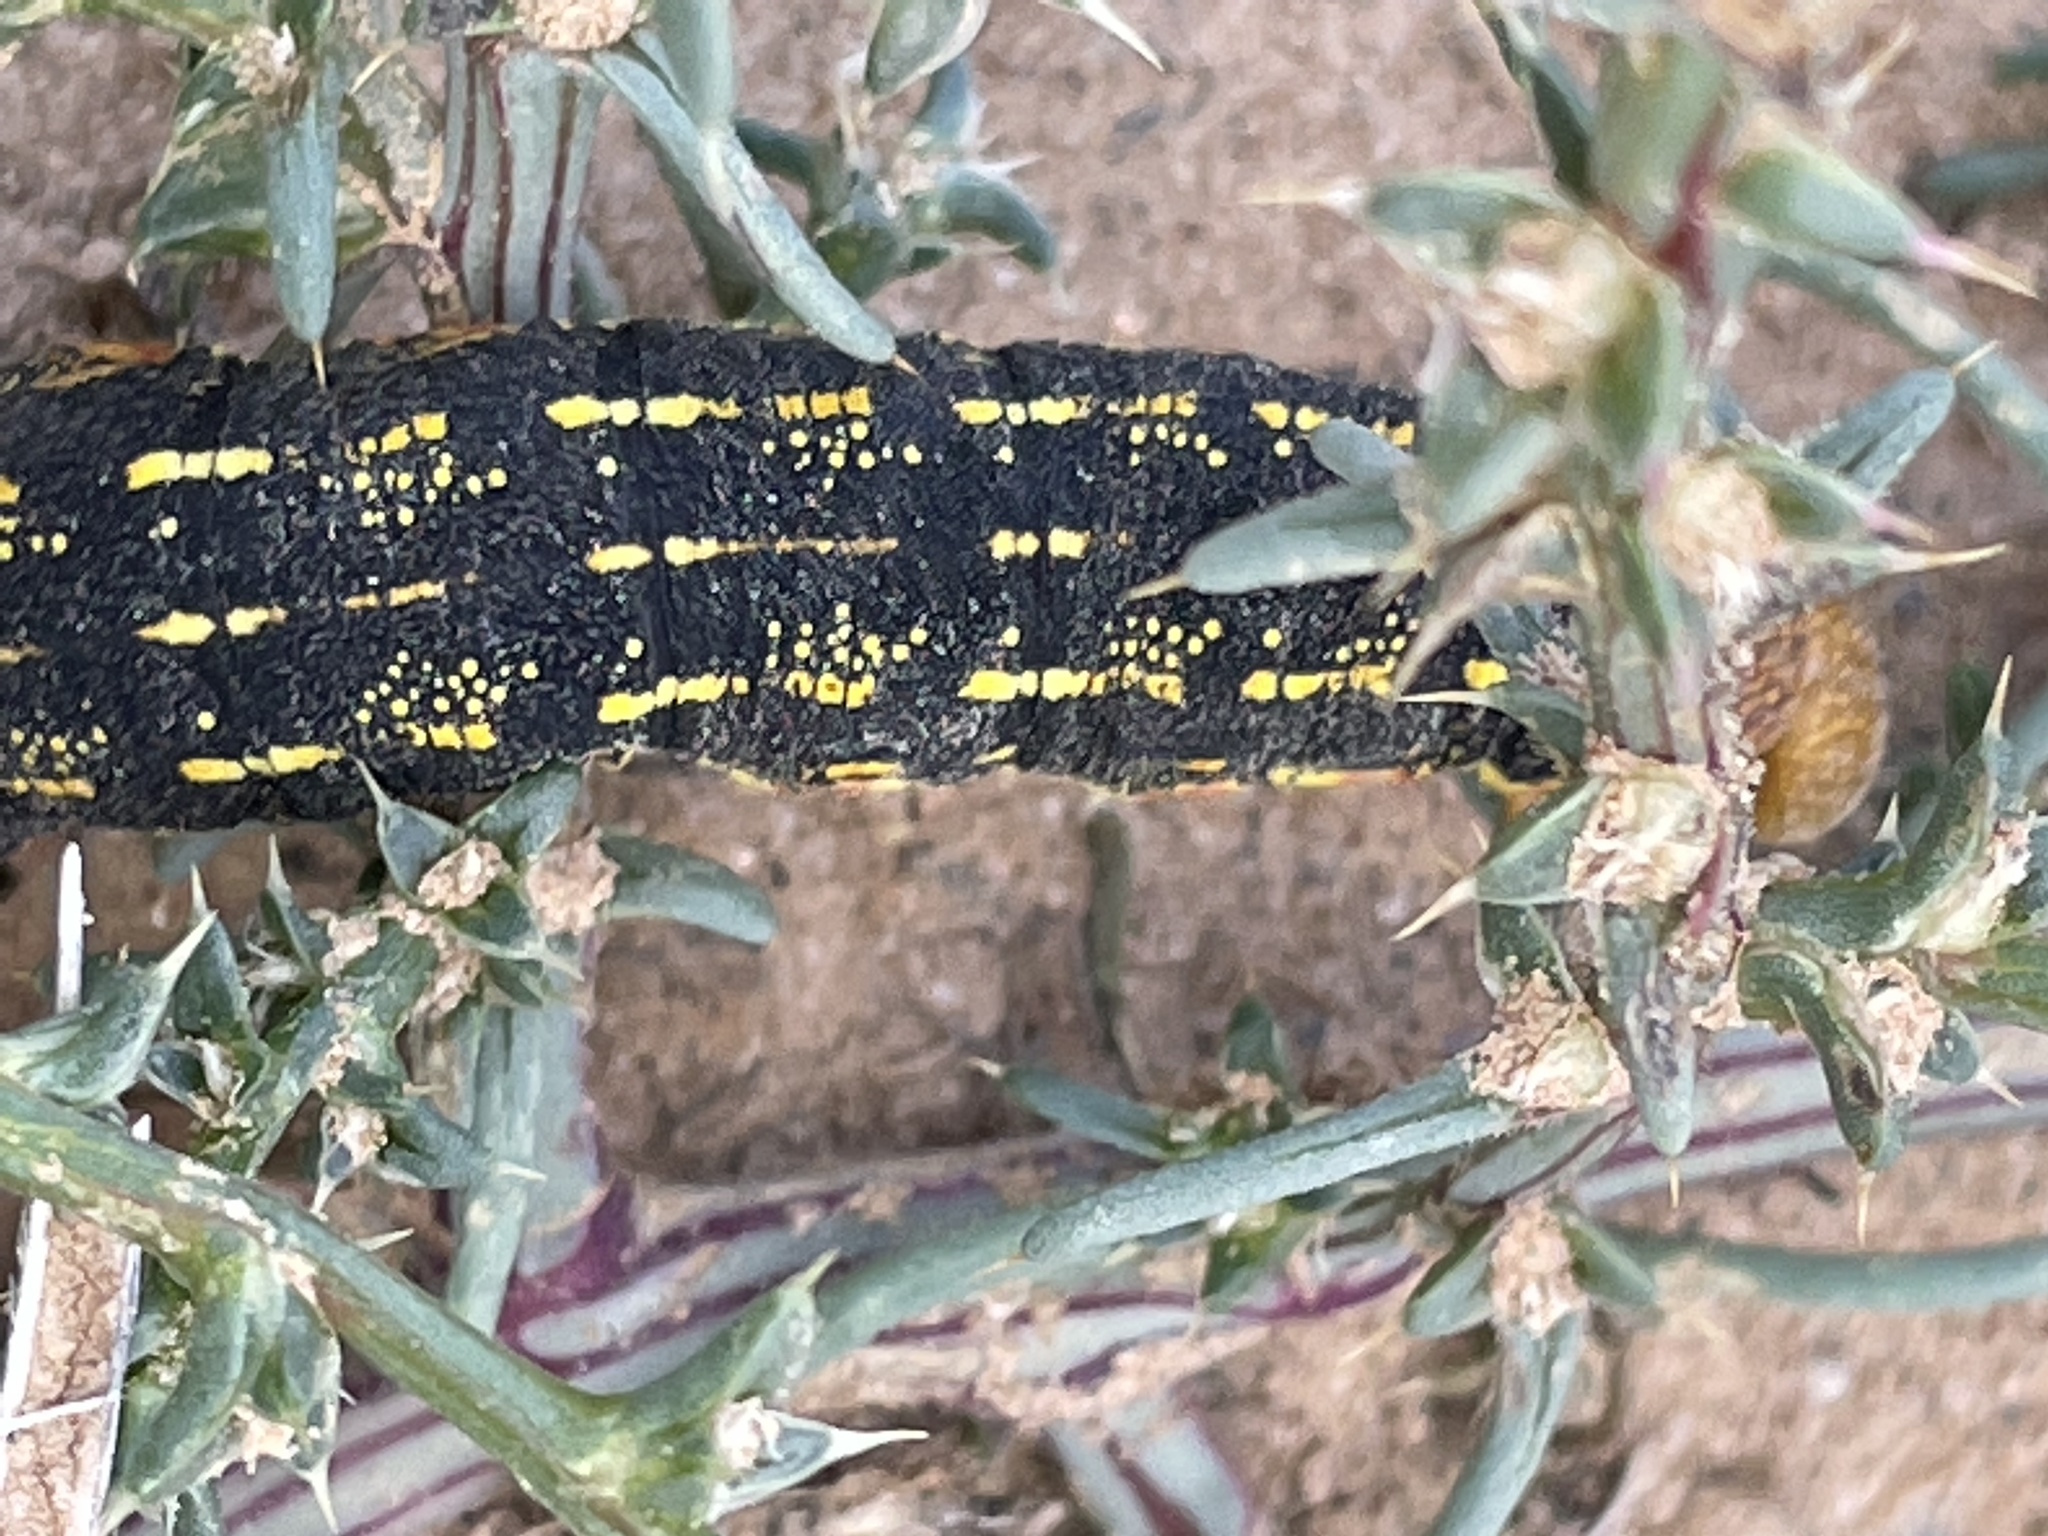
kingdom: Animalia
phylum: Arthropoda
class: Insecta
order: Lepidoptera
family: Sphingidae
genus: Hyles
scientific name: Hyles lineata
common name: White-lined sphinx
